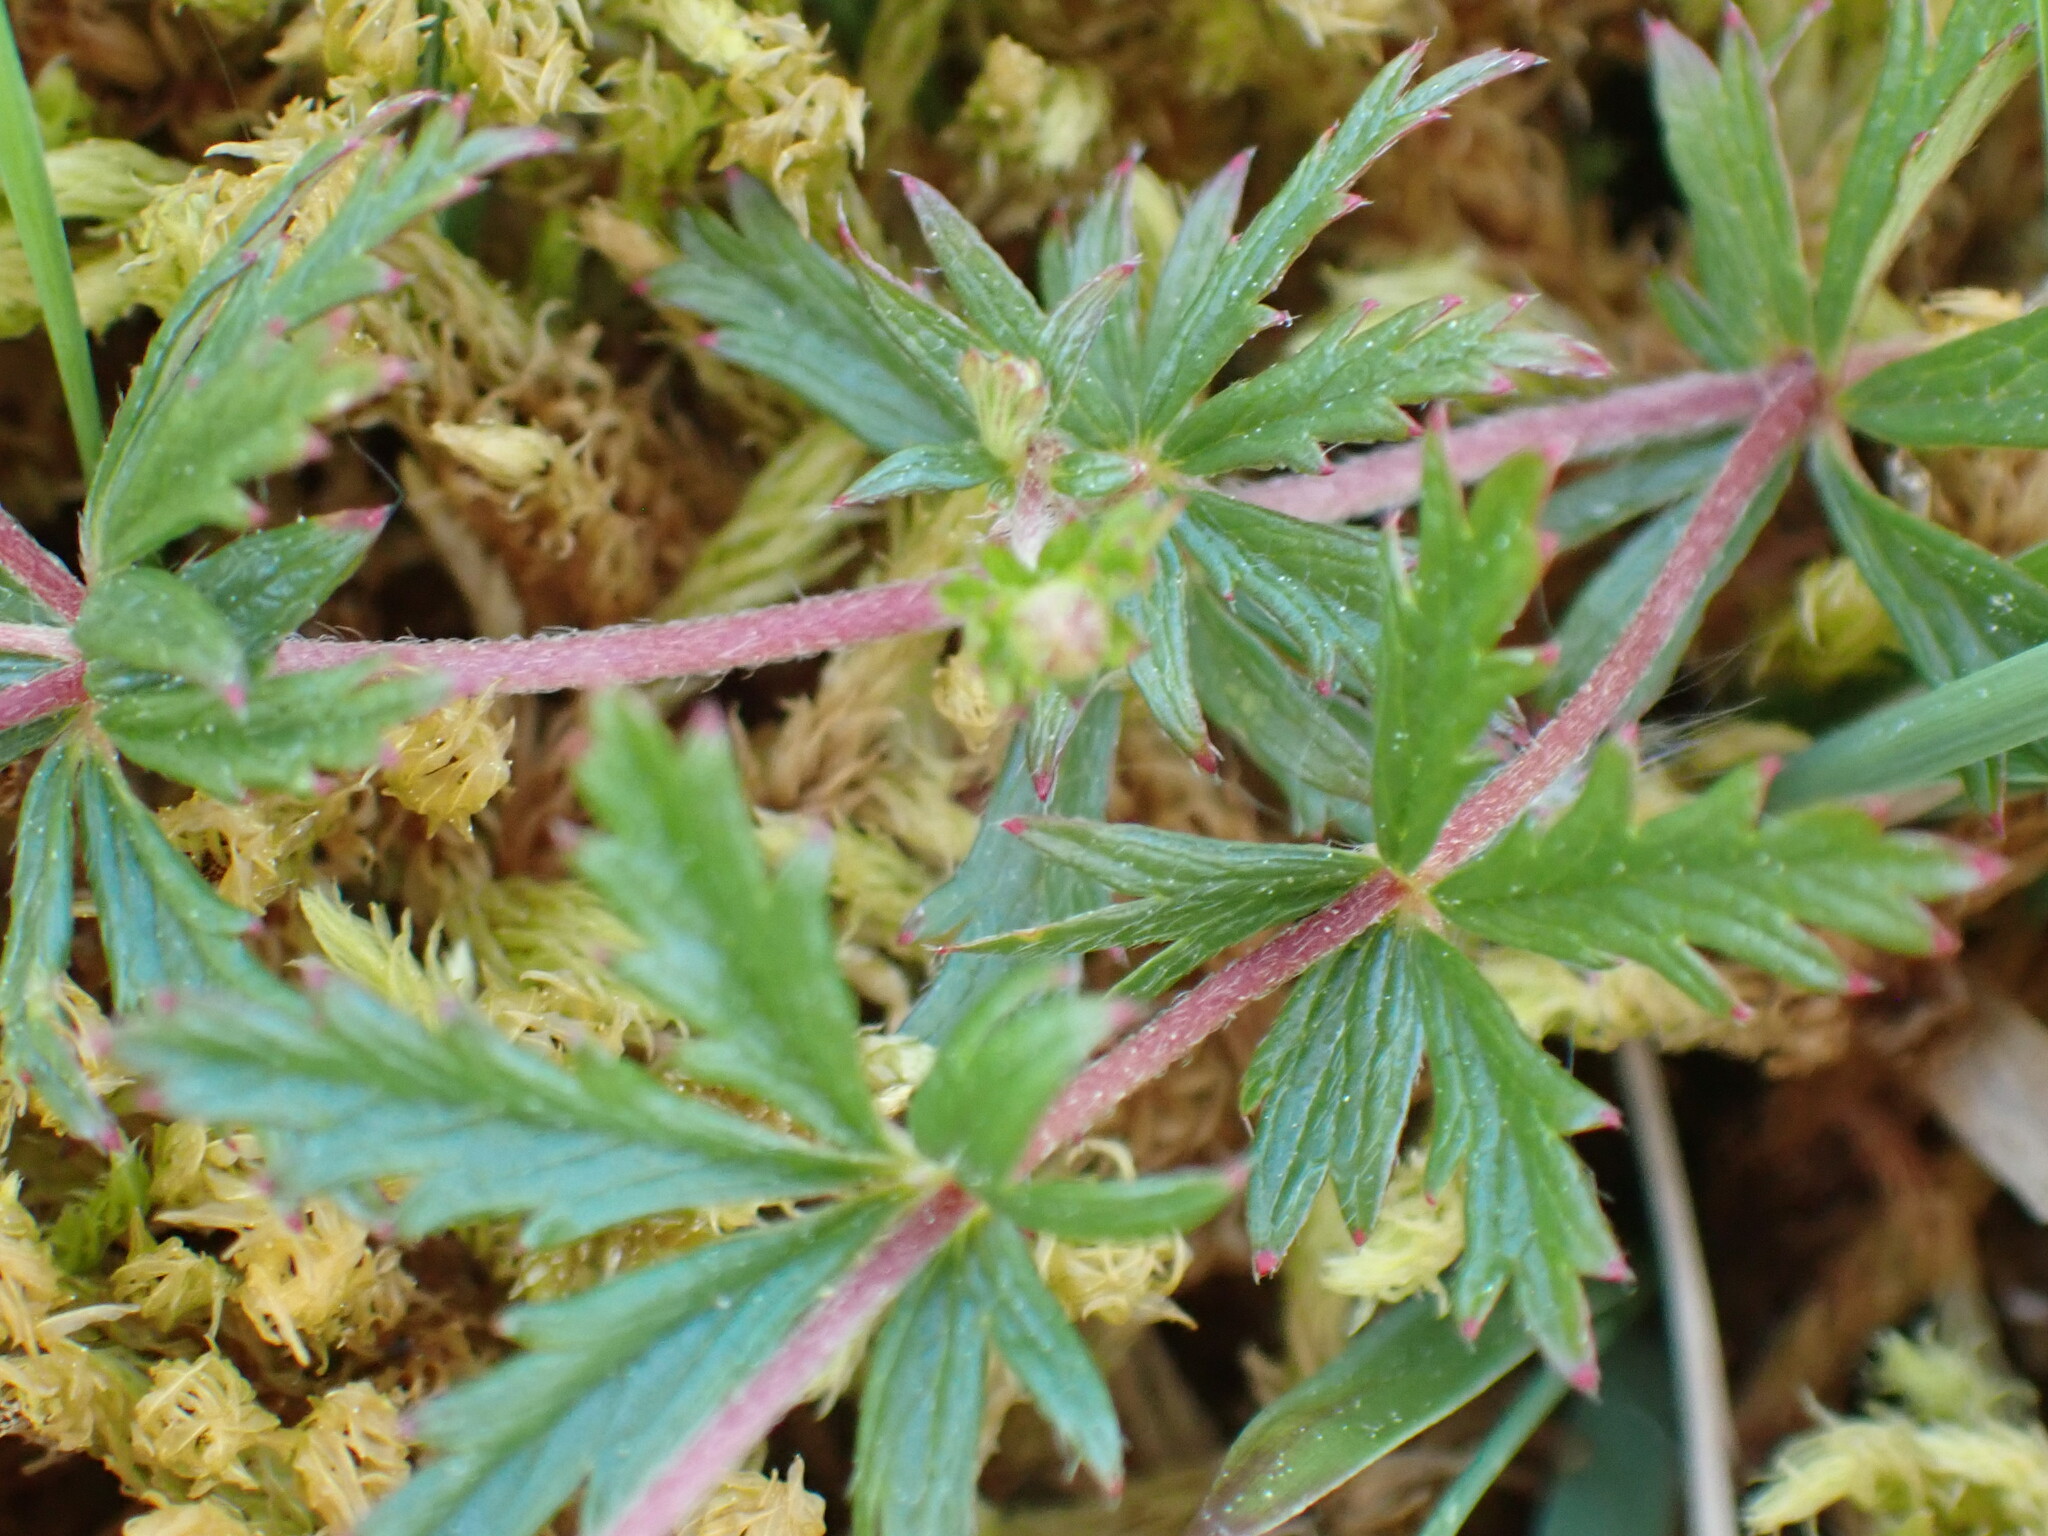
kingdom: Plantae
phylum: Tracheophyta
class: Magnoliopsida
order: Rosales
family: Rosaceae
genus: Potentilla
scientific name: Potentilla erecta
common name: Tormentil
